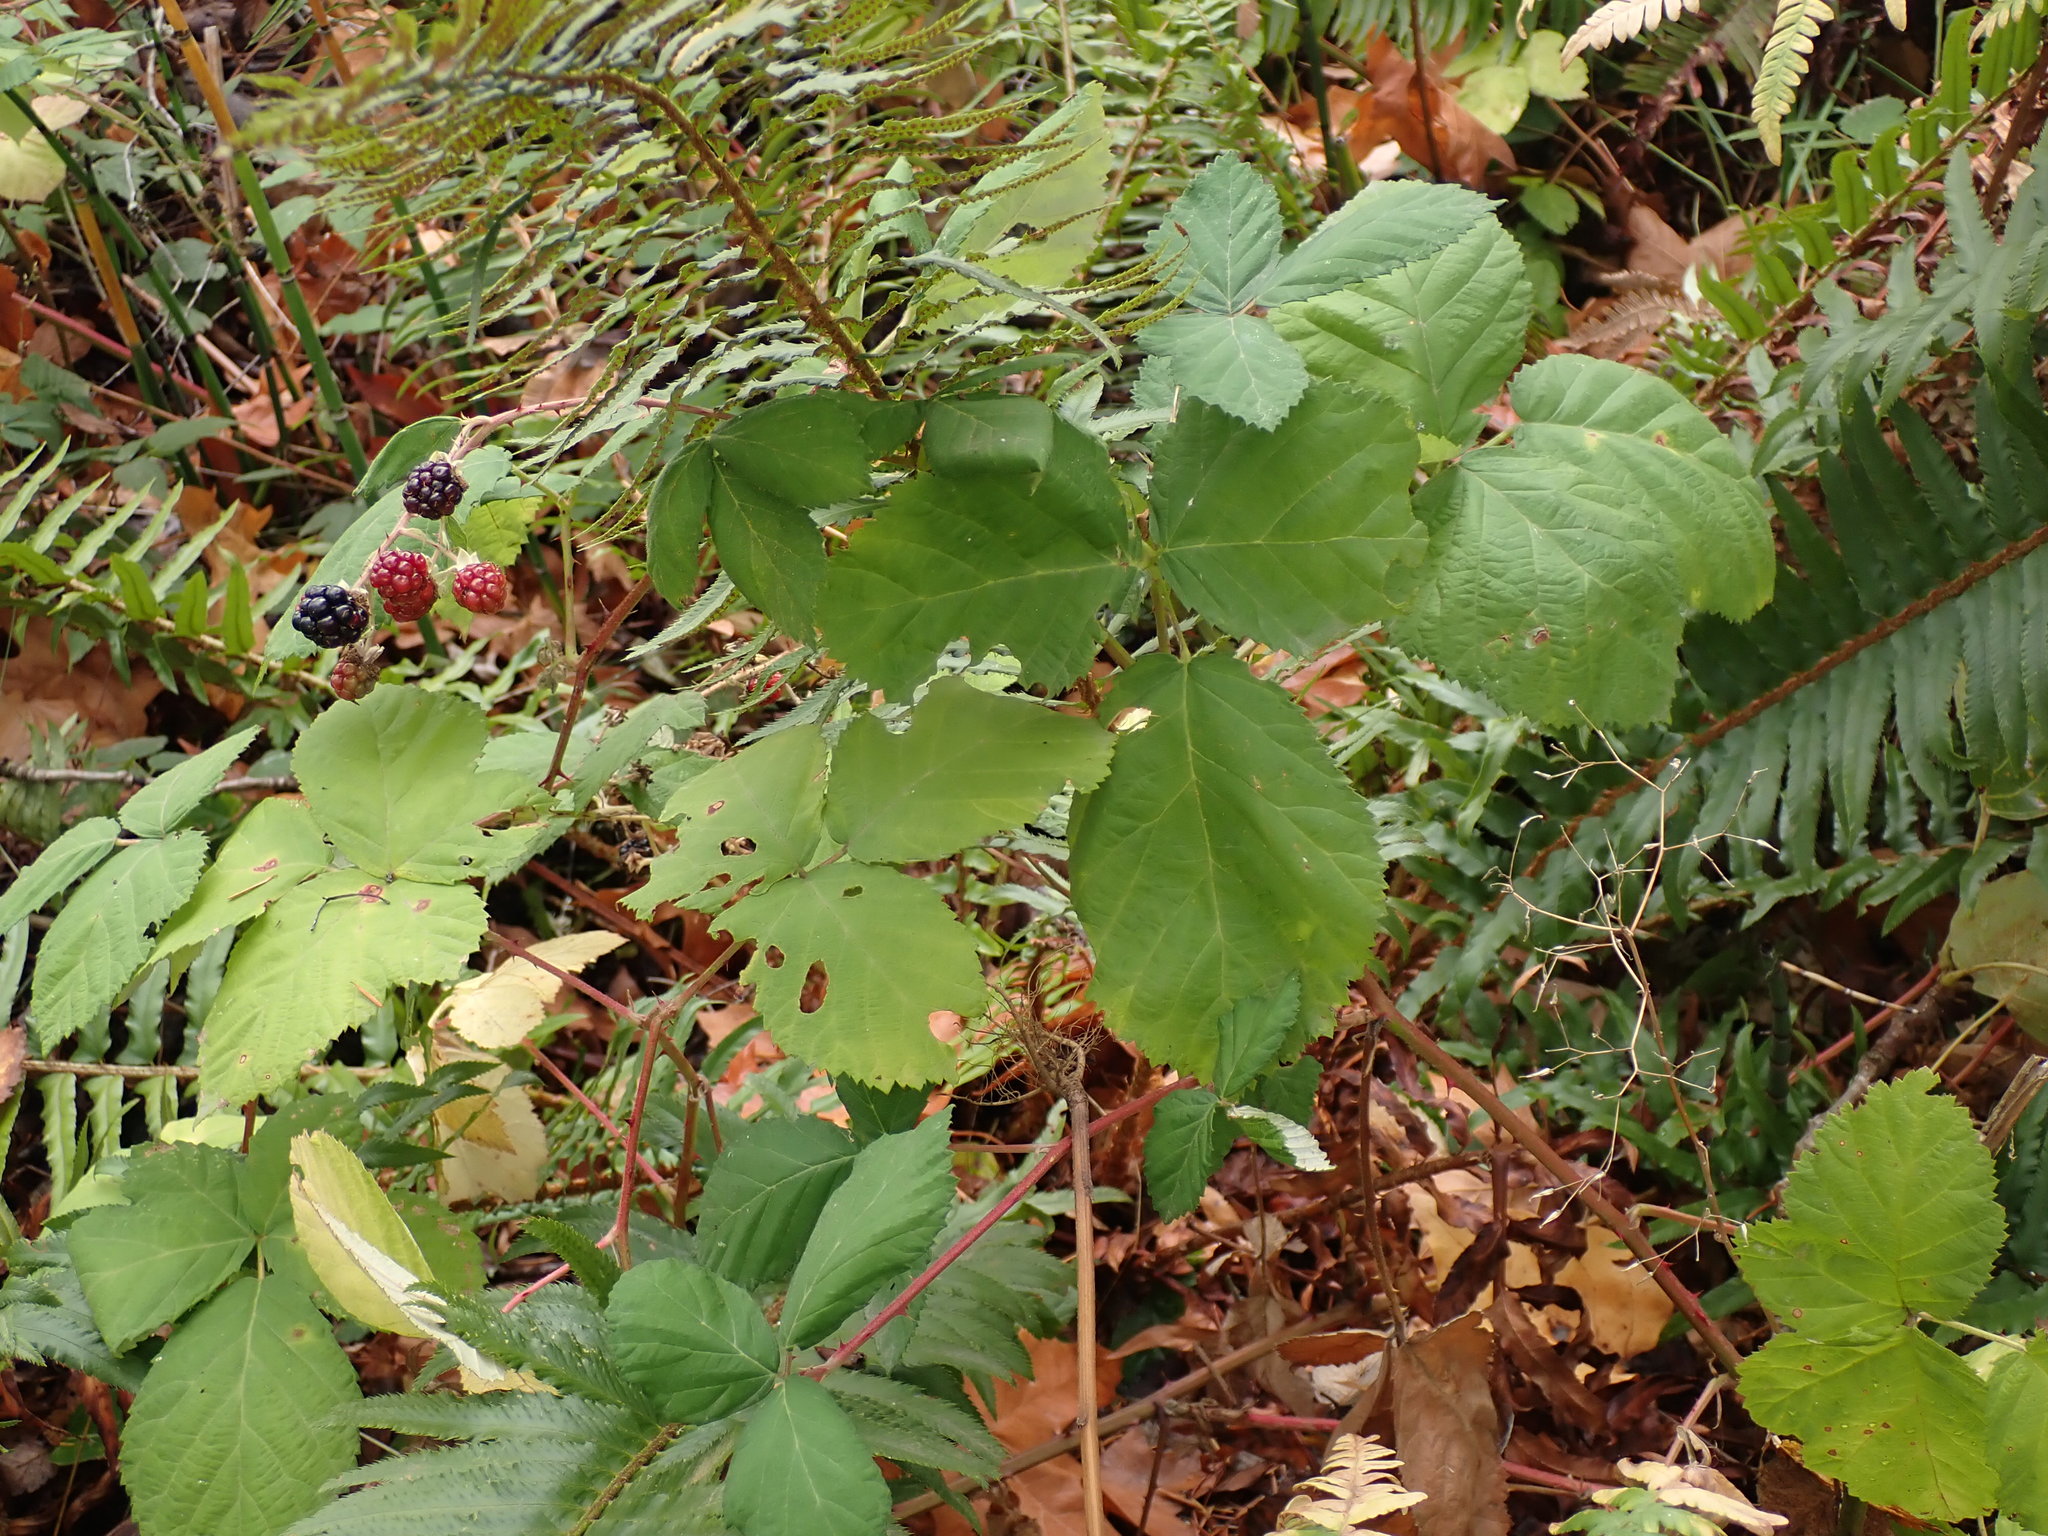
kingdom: Plantae
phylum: Tracheophyta
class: Magnoliopsida
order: Rosales
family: Rosaceae
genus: Rubus
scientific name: Rubus bifrons
